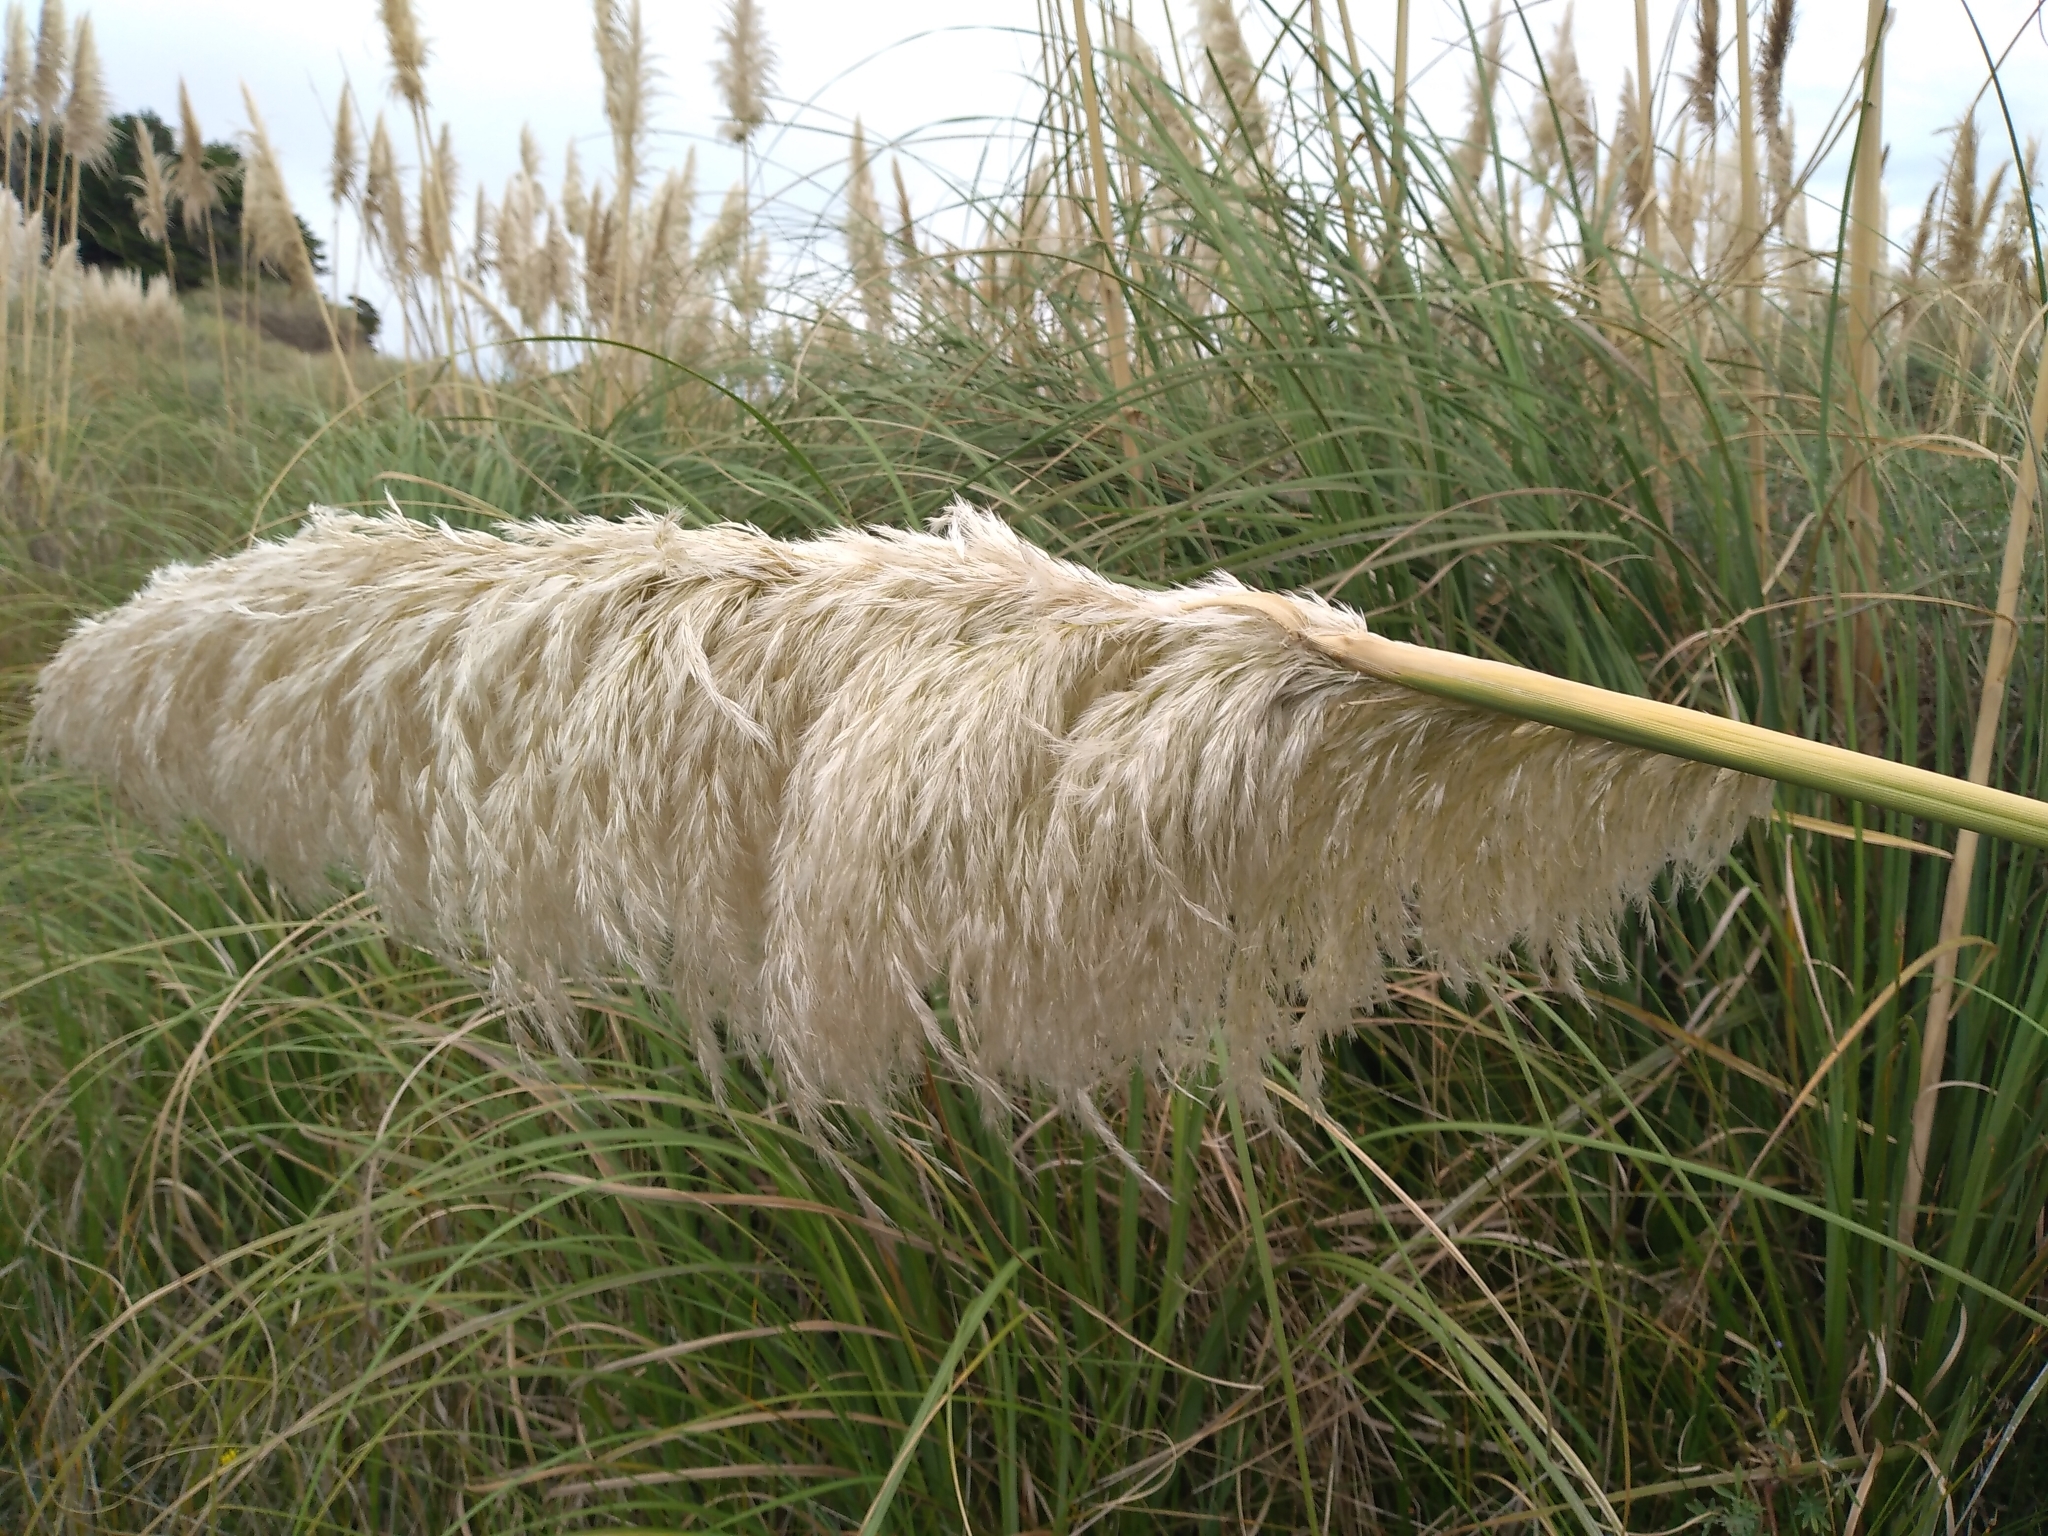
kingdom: Plantae
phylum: Tracheophyta
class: Liliopsida
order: Poales
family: Poaceae
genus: Cortaderia
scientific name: Cortaderia selloana
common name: Uruguayan pampas grass
